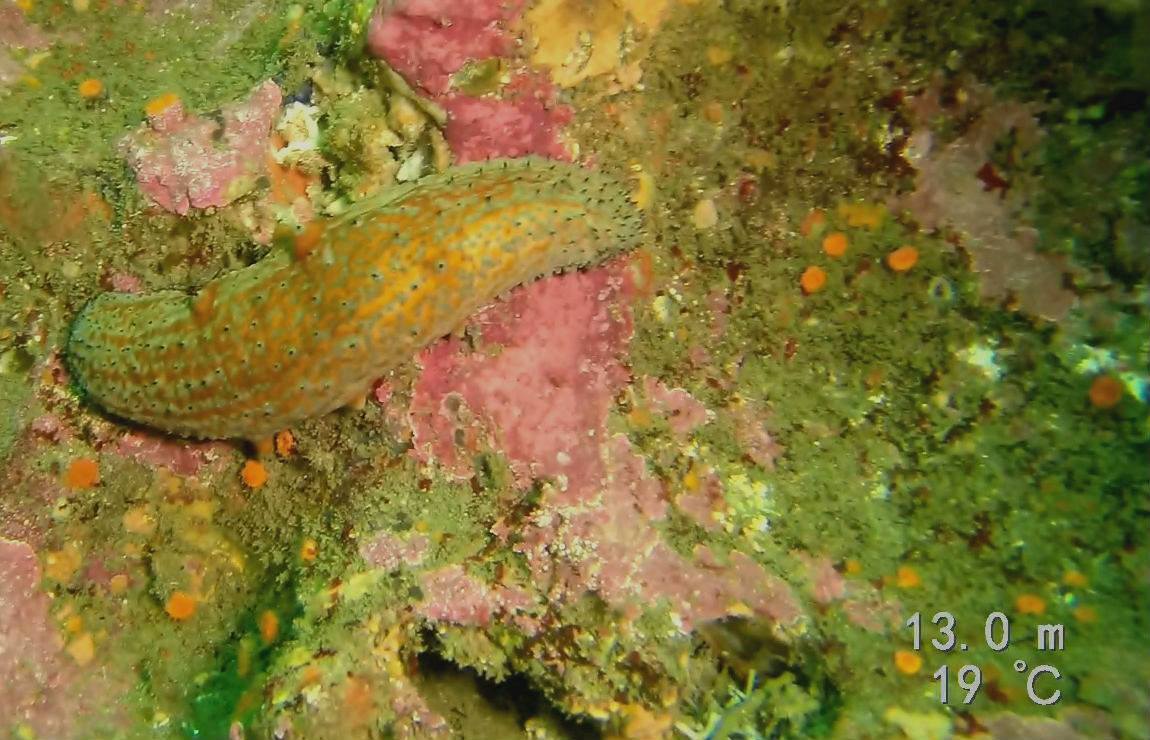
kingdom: Animalia
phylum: Echinodermata
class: Holothuroidea
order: Synallactida
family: Stichopodidae
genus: Apostichopus
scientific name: Apostichopus parvimensis
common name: Warty sea cucumber
